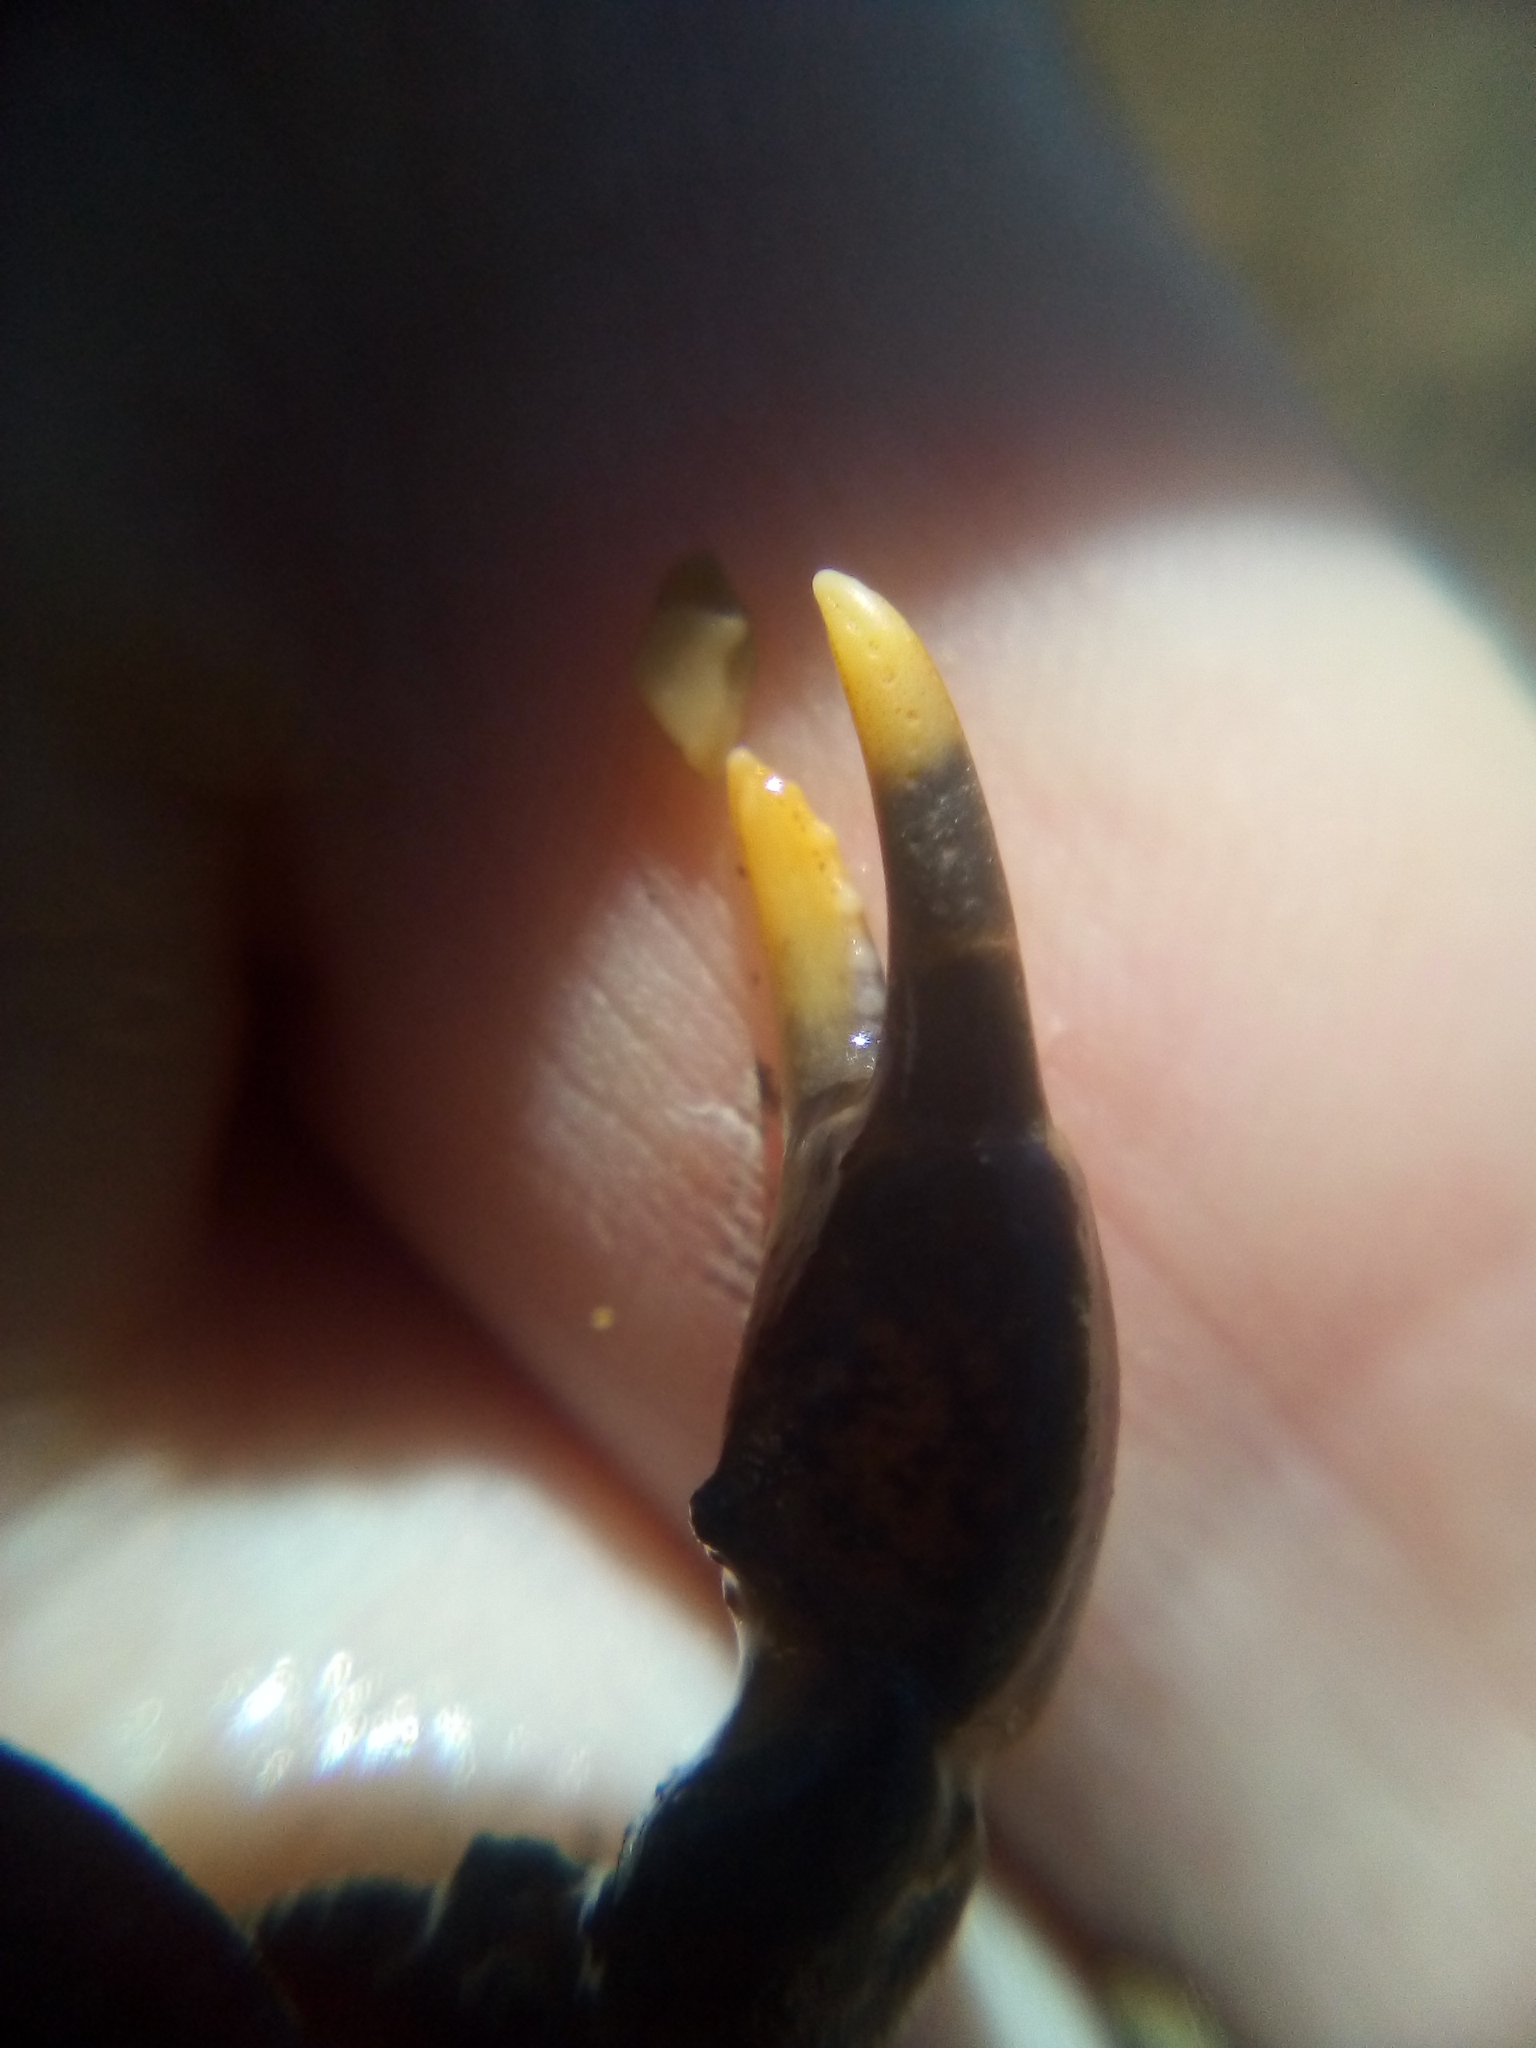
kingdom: Animalia
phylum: Arthropoda
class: Malacostraca
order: Decapoda
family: Heteroziidae
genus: Heterozius
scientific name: Heterozius rotundifrons
